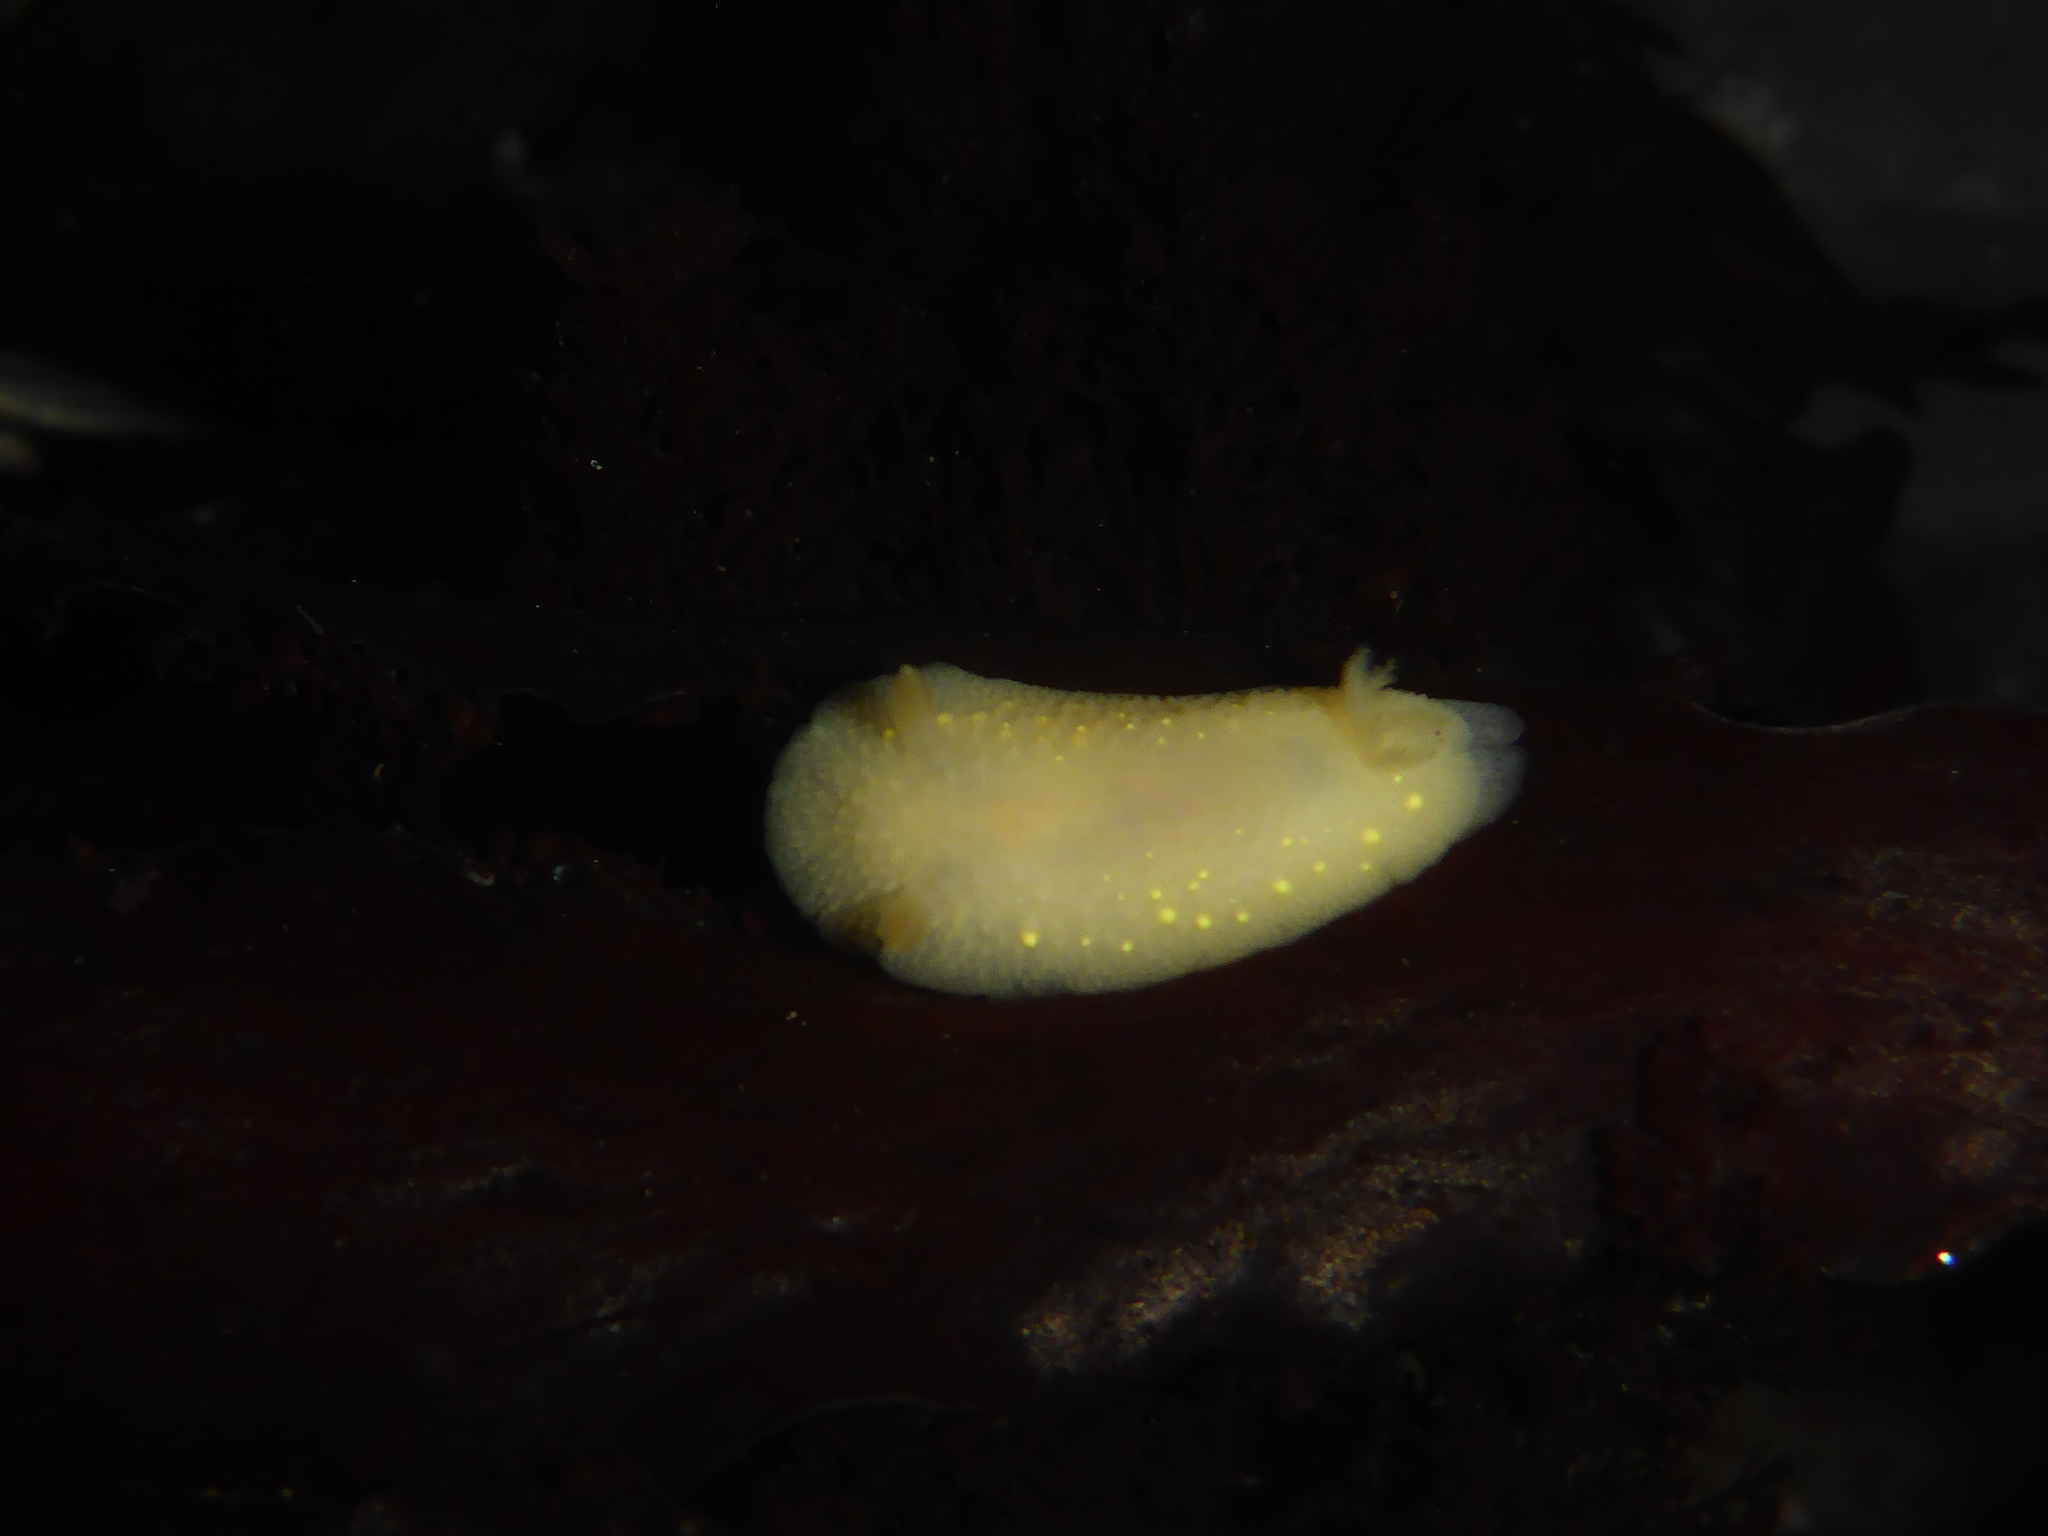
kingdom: Animalia
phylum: Mollusca
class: Gastropoda
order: Nudibranchia
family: Cadlinidae
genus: Cadlina
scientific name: Cadlina modesta
